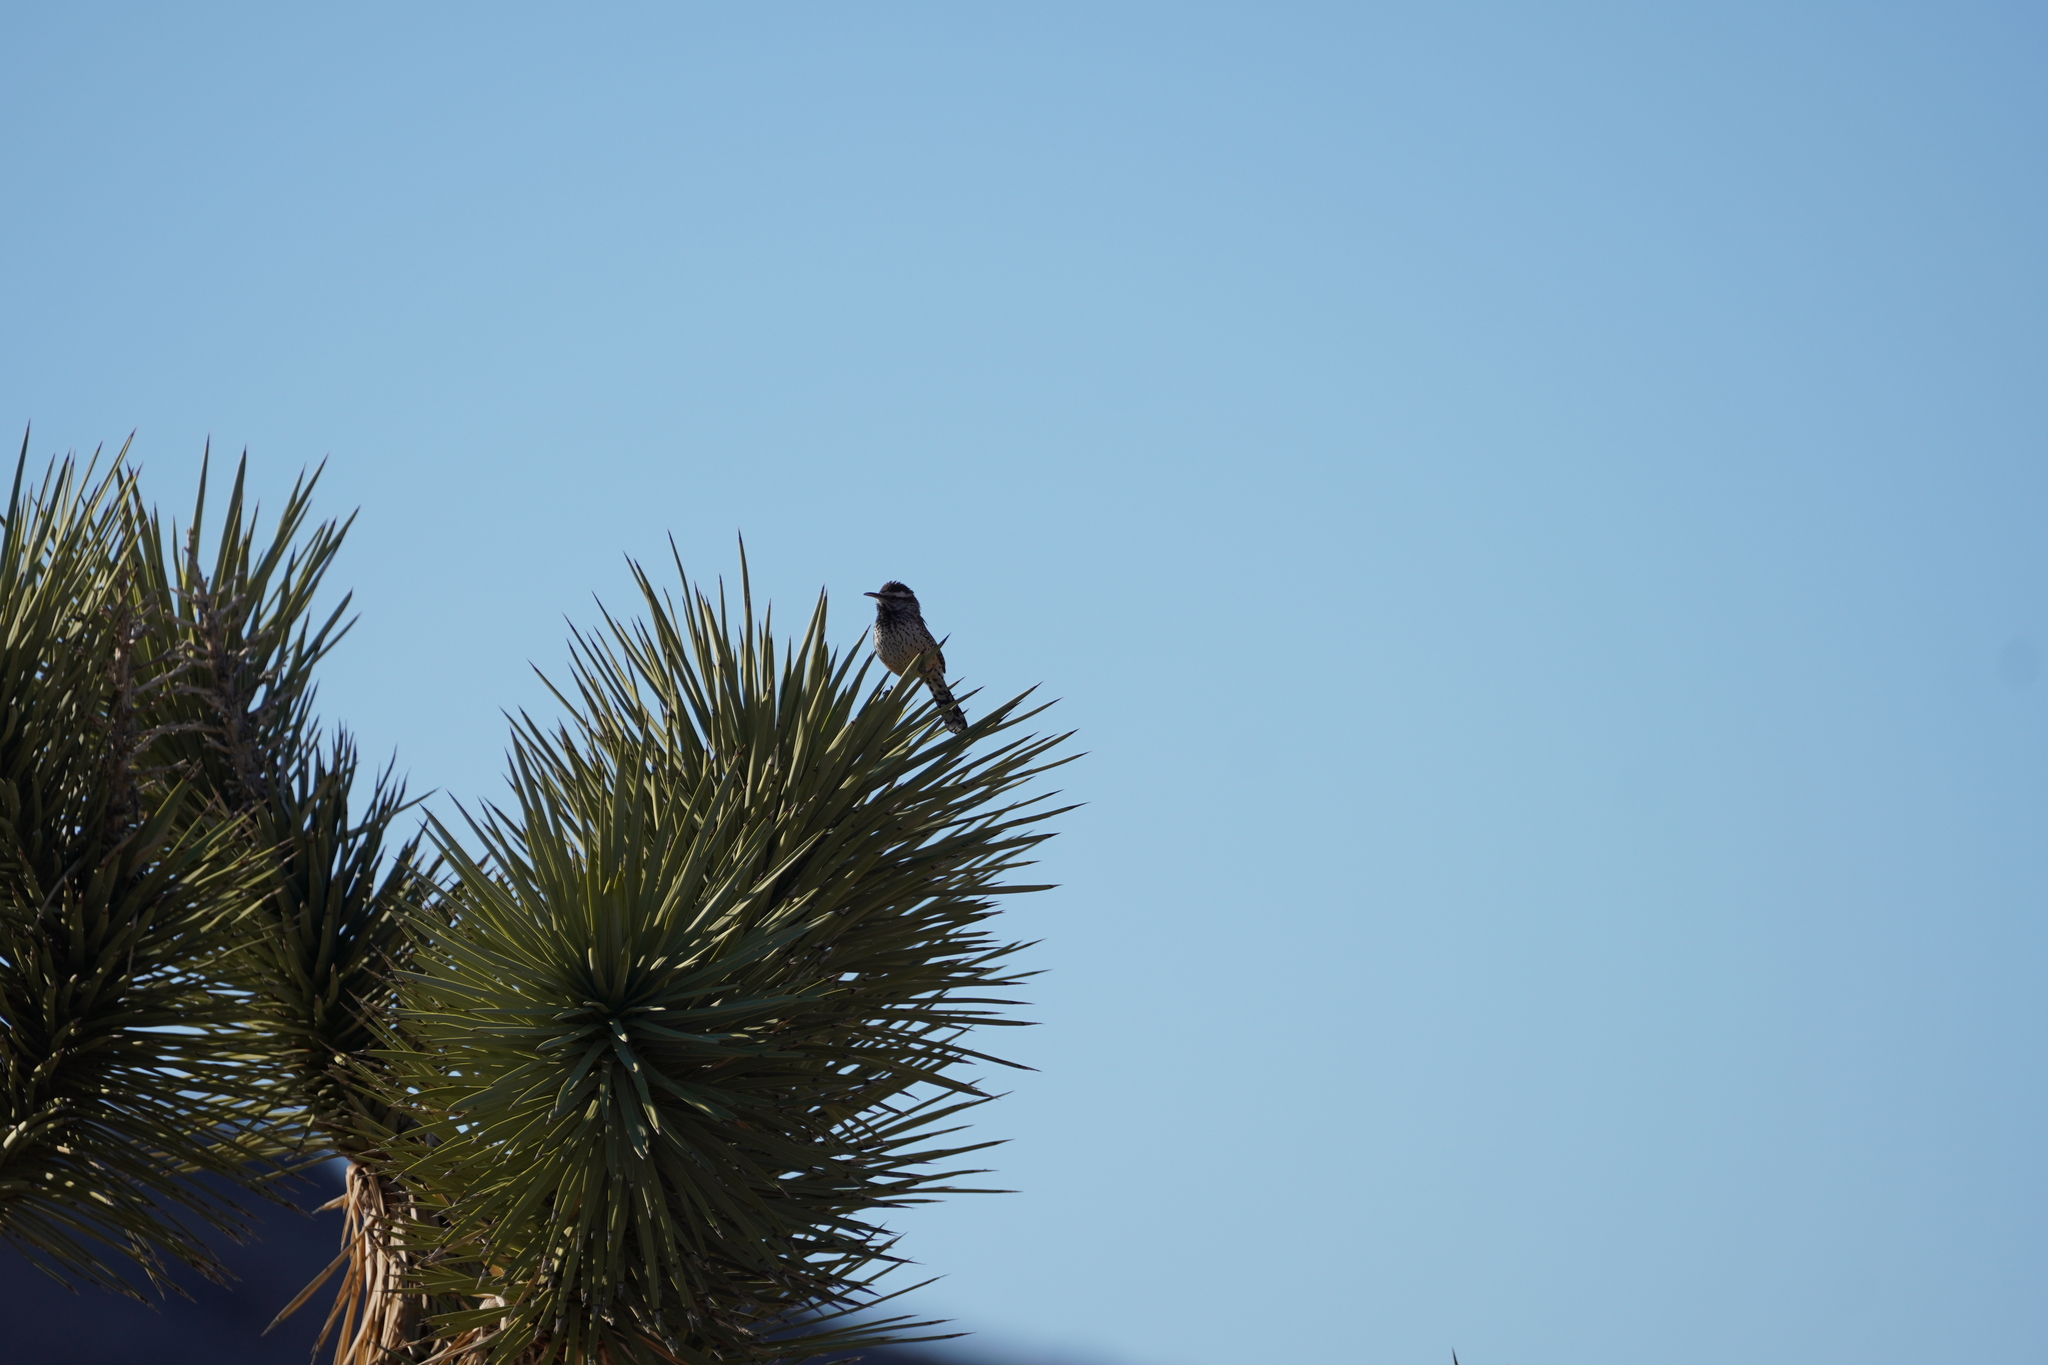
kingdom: Animalia
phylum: Chordata
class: Aves
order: Passeriformes
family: Troglodytidae
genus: Campylorhynchus
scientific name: Campylorhynchus brunneicapillus
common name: Cactus wren
